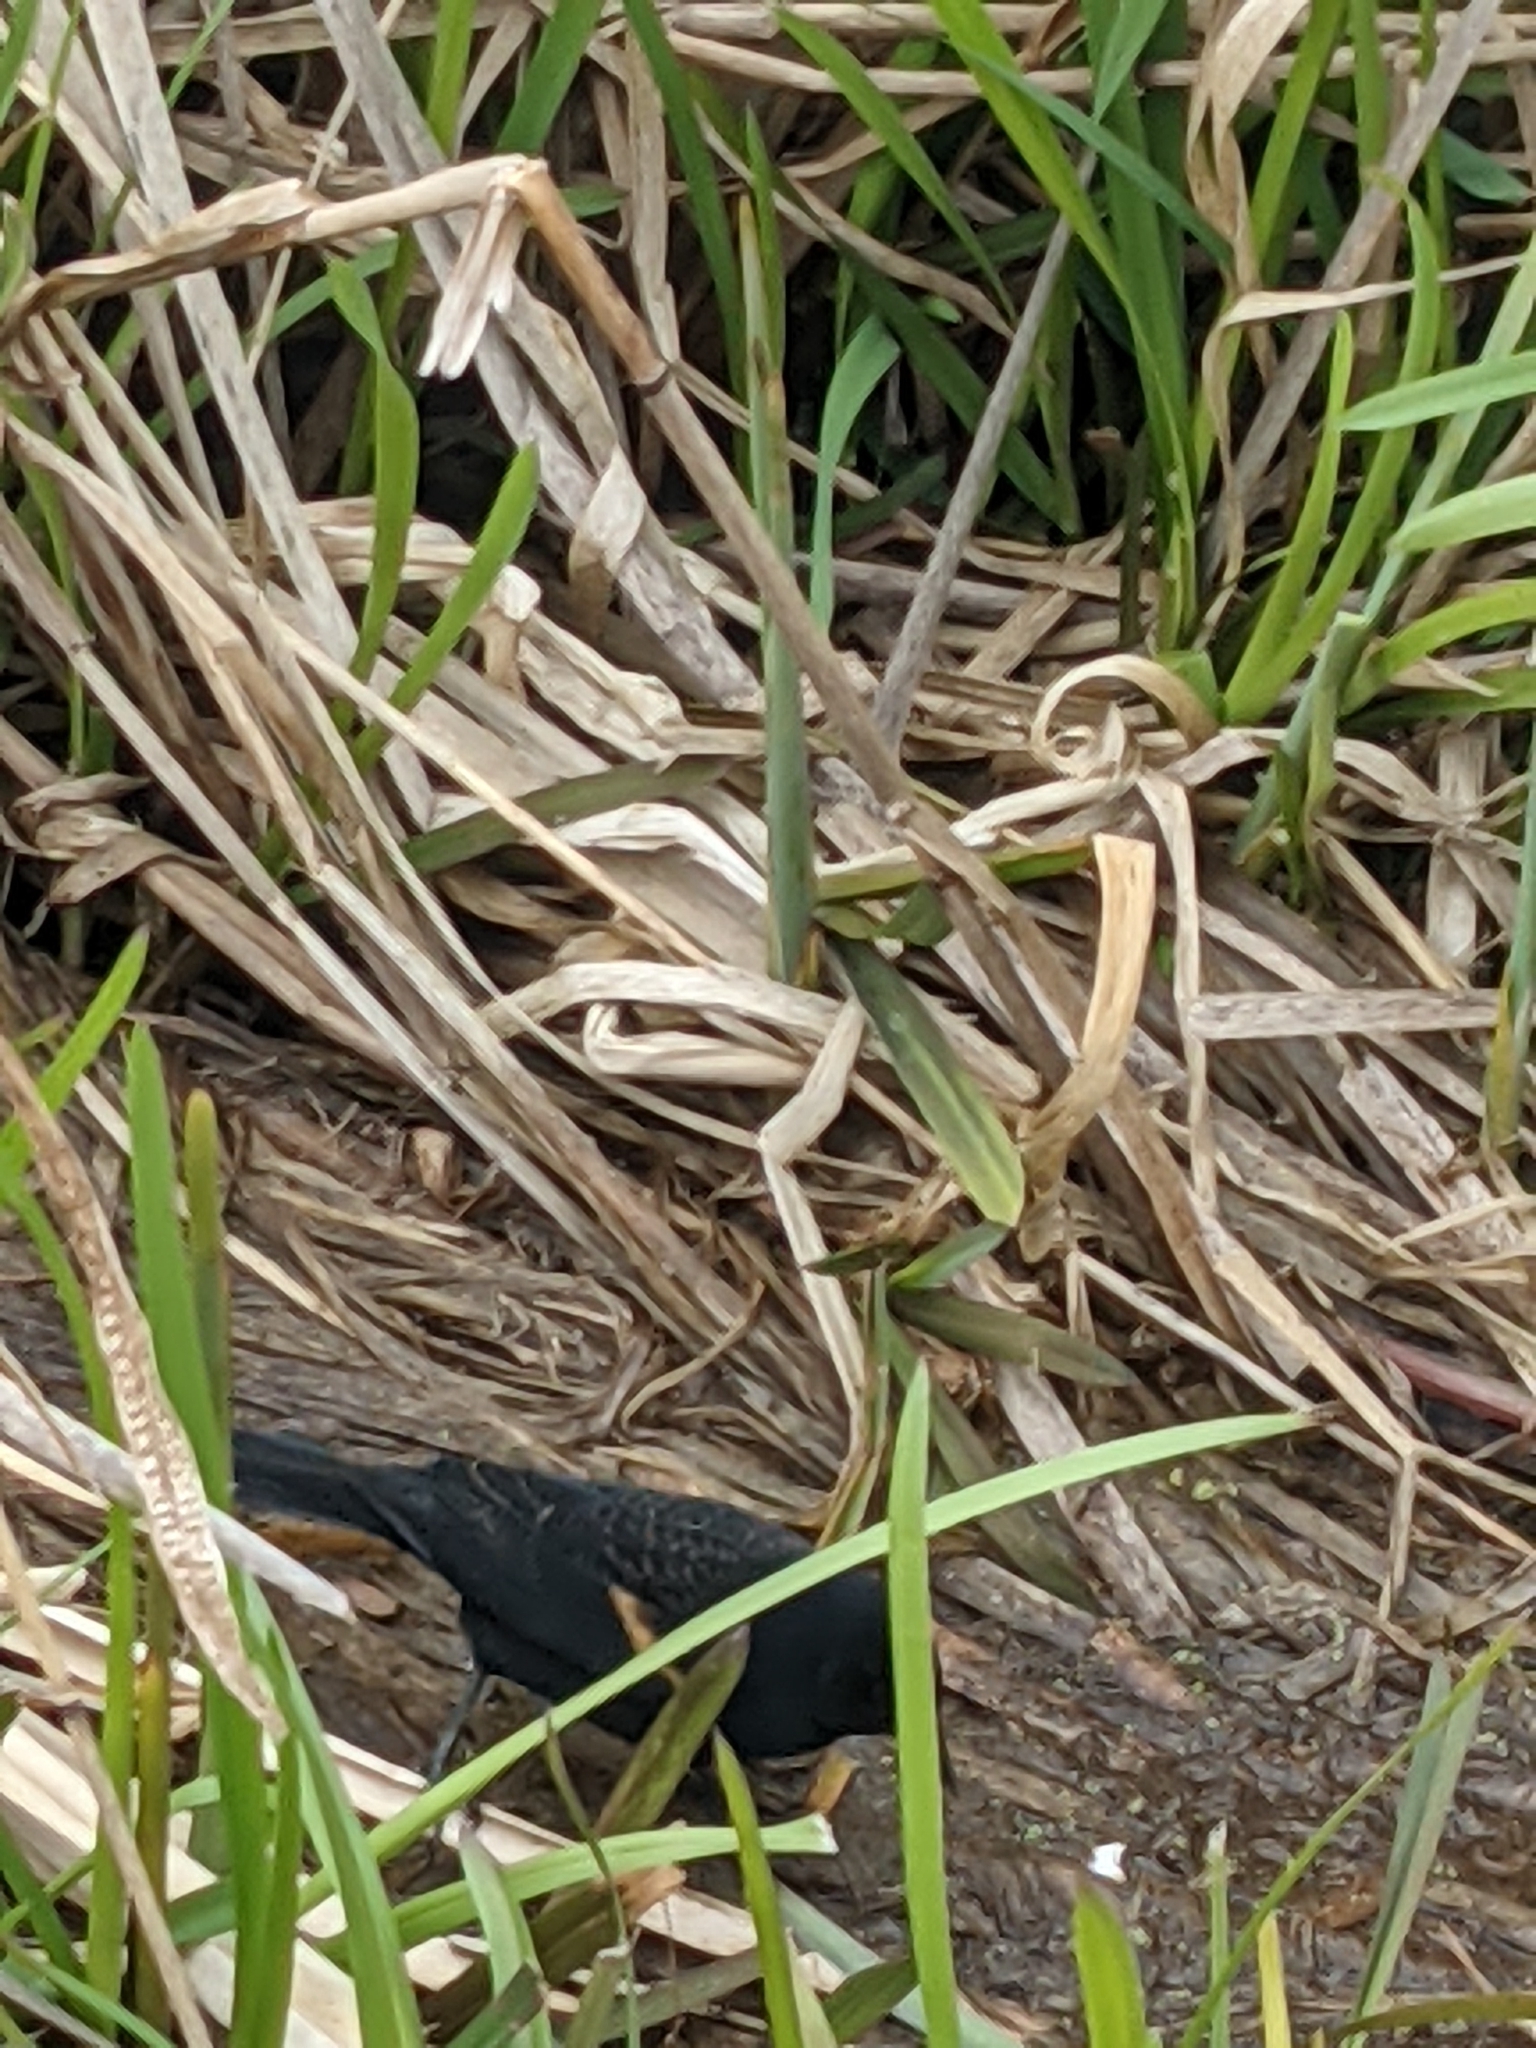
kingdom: Animalia
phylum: Chordata
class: Aves
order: Passeriformes
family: Icteridae
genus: Agelaius
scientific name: Agelaius phoeniceus
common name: Red-winged blackbird
